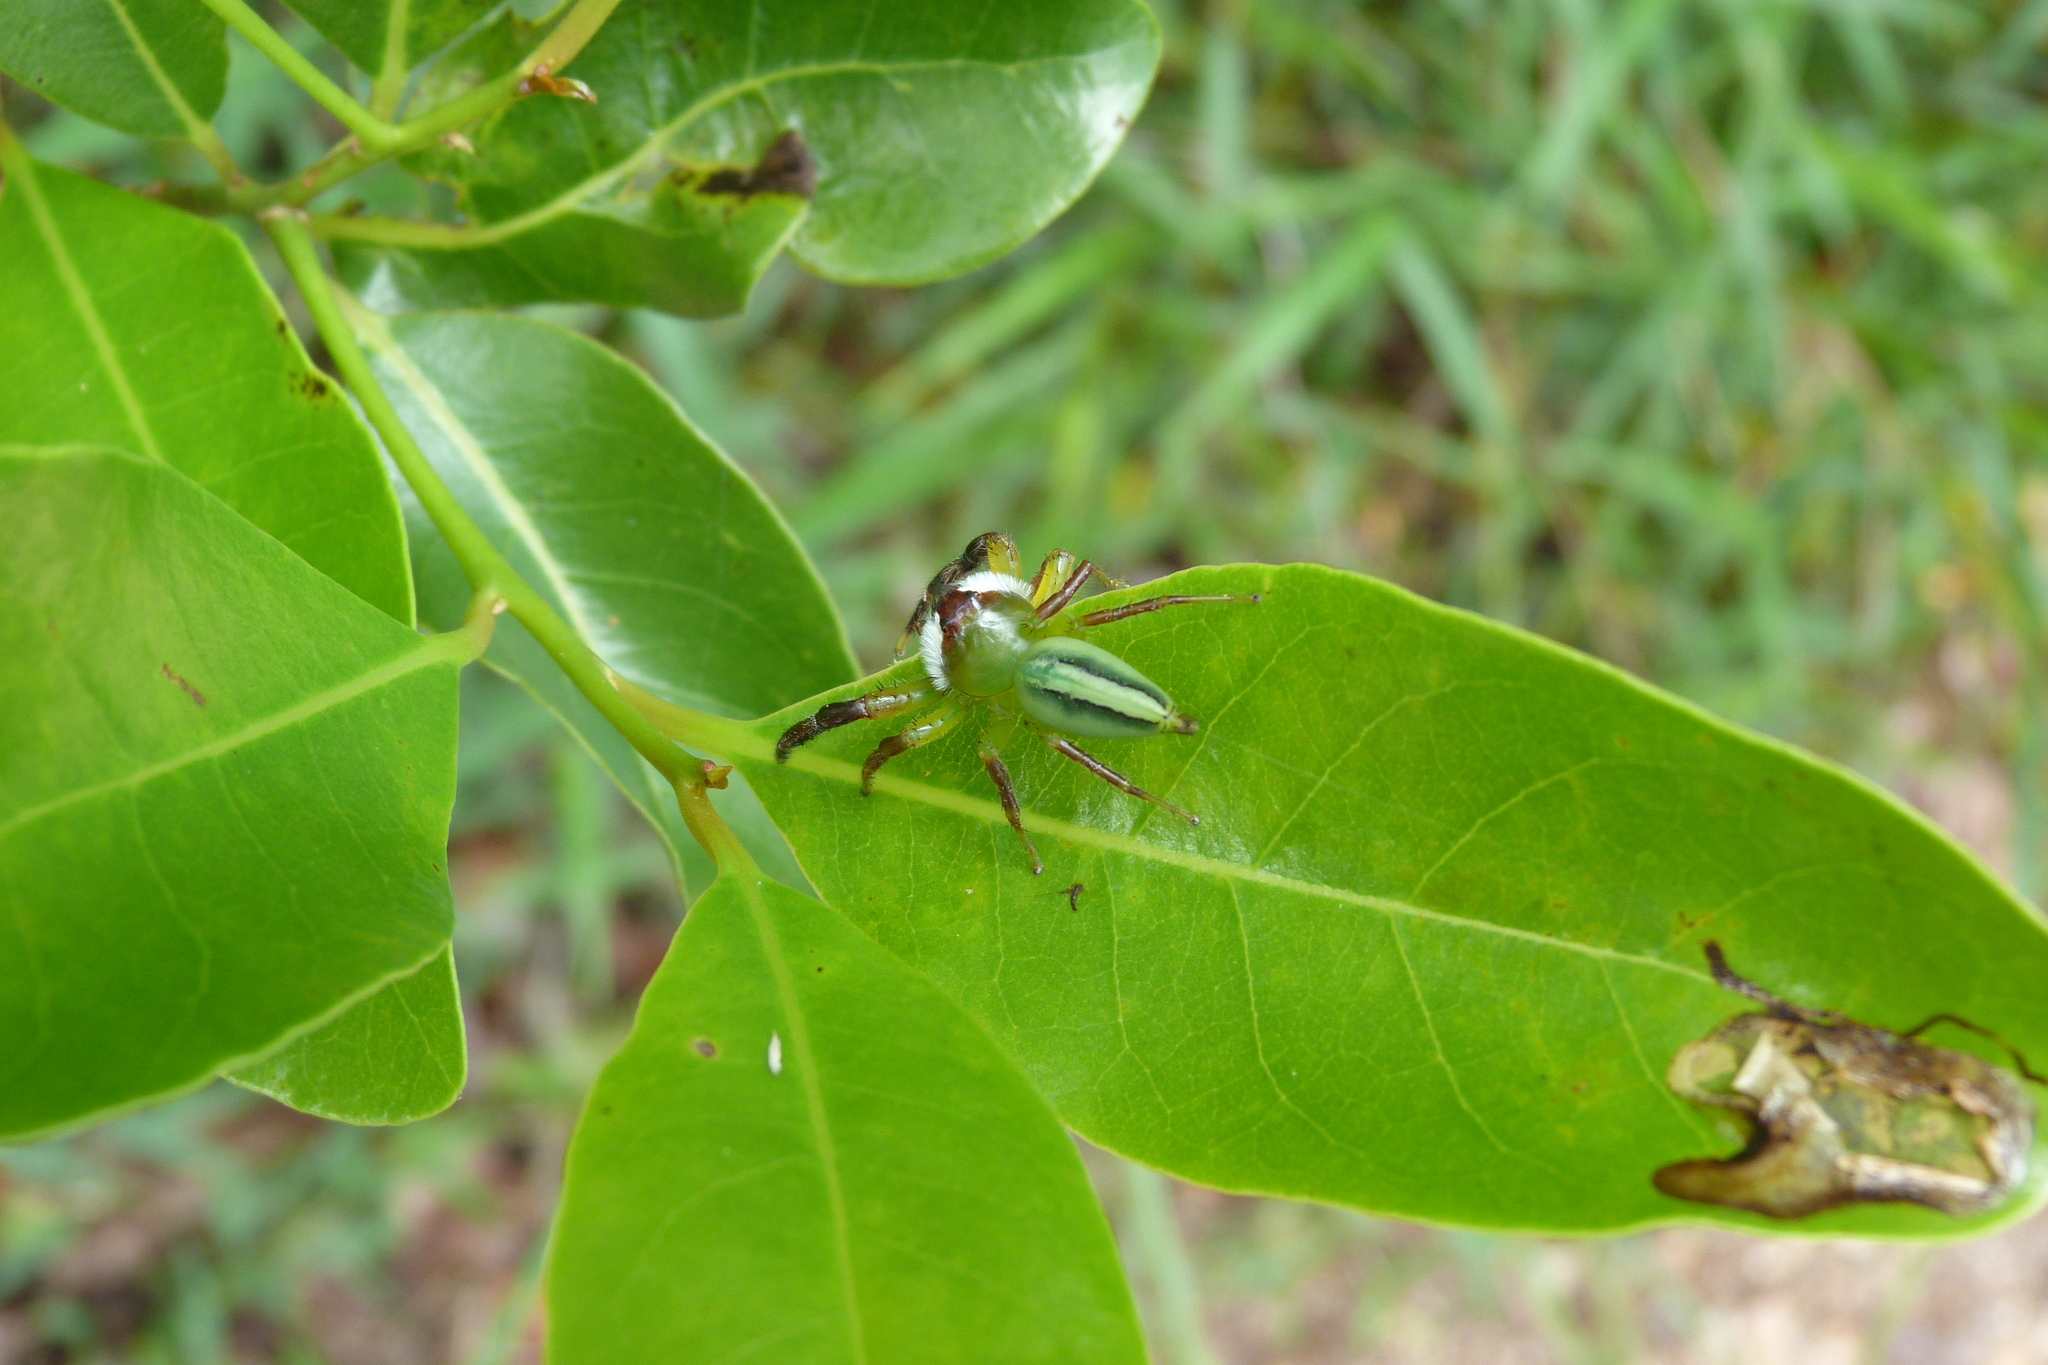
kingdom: Animalia
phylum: Arthropoda
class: Arachnida
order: Araneae
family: Salticidae
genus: Mopsus
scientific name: Mopsus mormon
